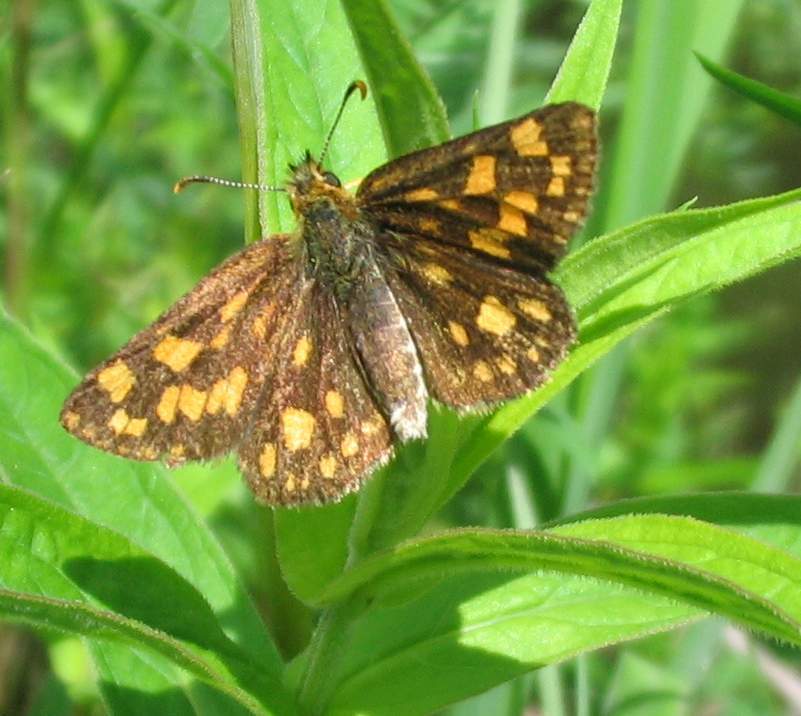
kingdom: Animalia
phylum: Arthropoda
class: Insecta
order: Lepidoptera
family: Hesperiidae
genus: Carterocephalus
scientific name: Carterocephalus mandan
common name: Arctic skipperling
